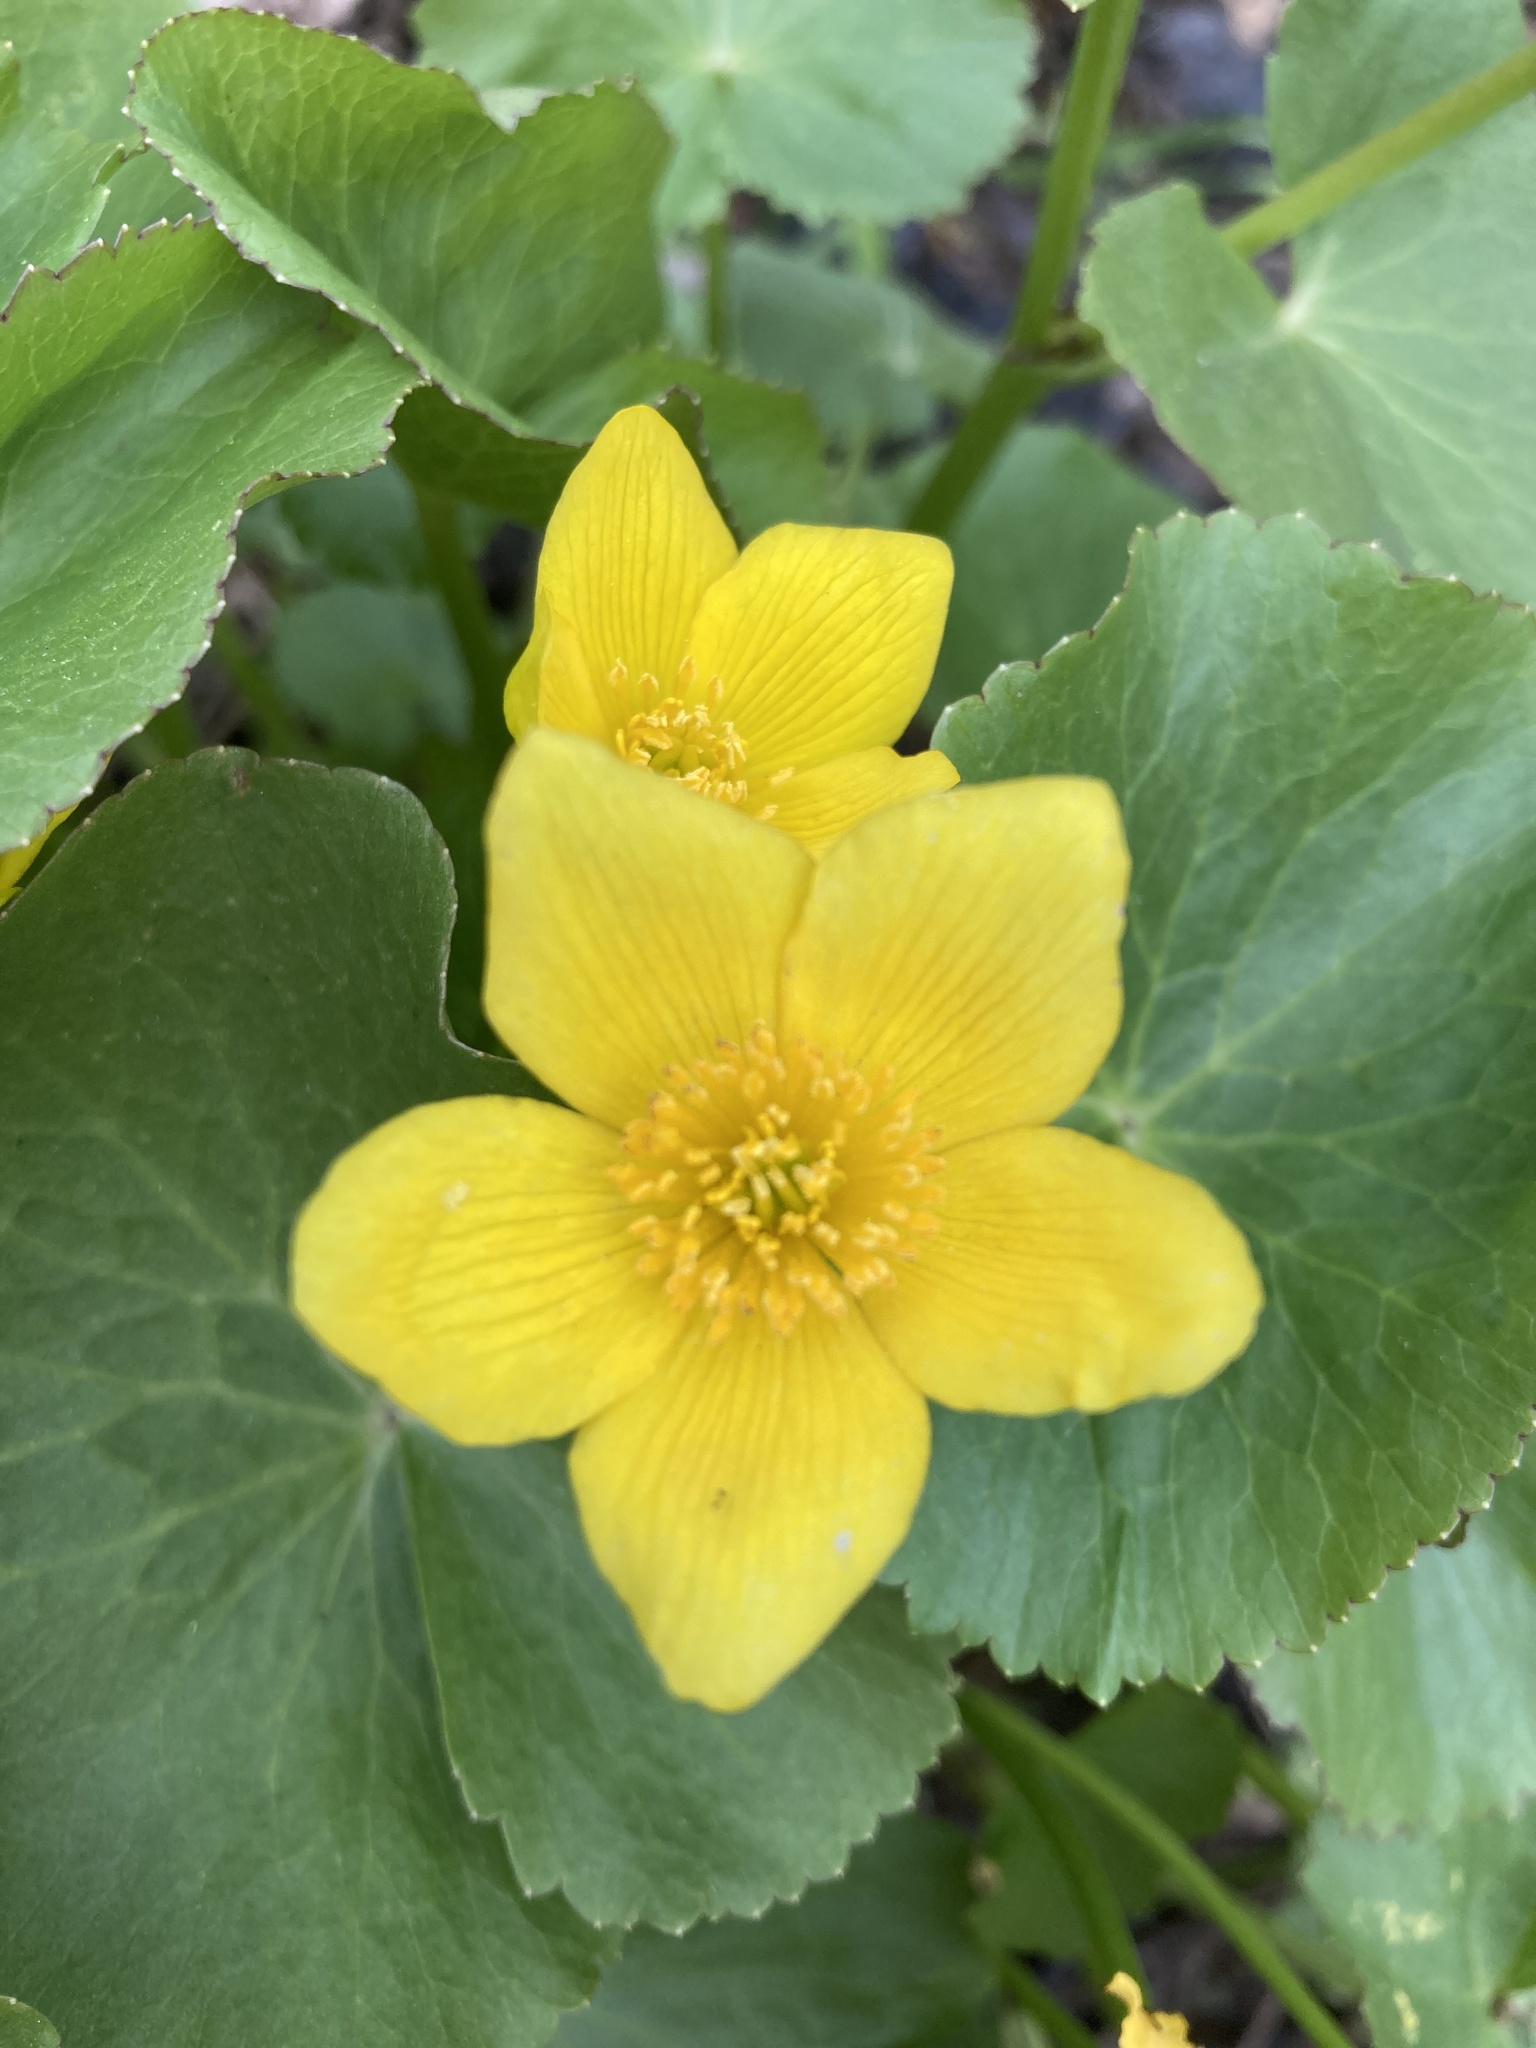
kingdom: Plantae
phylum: Tracheophyta
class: Magnoliopsida
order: Ranunculales
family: Ranunculaceae
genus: Caltha
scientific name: Caltha palustris
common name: Marsh marigold
